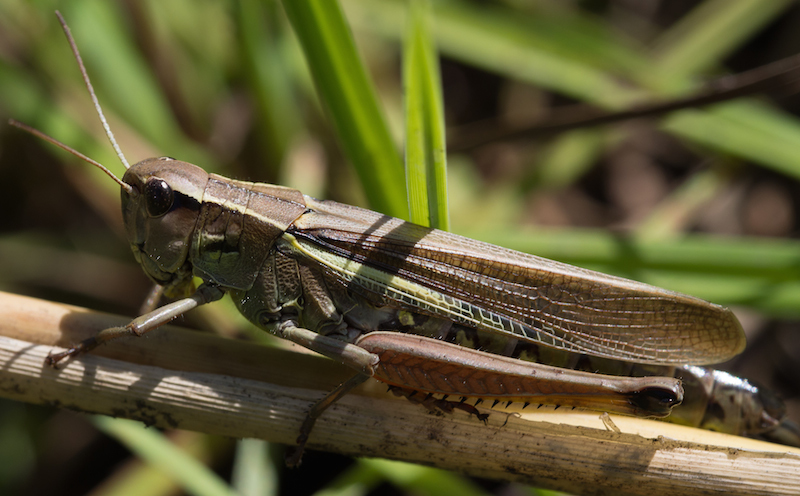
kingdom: Animalia
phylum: Arthropoda
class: Insecta
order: Orthoptera
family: Acrididae
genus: Stethophyma
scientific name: Stethophyma grossum
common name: Large marsh grasshopper
